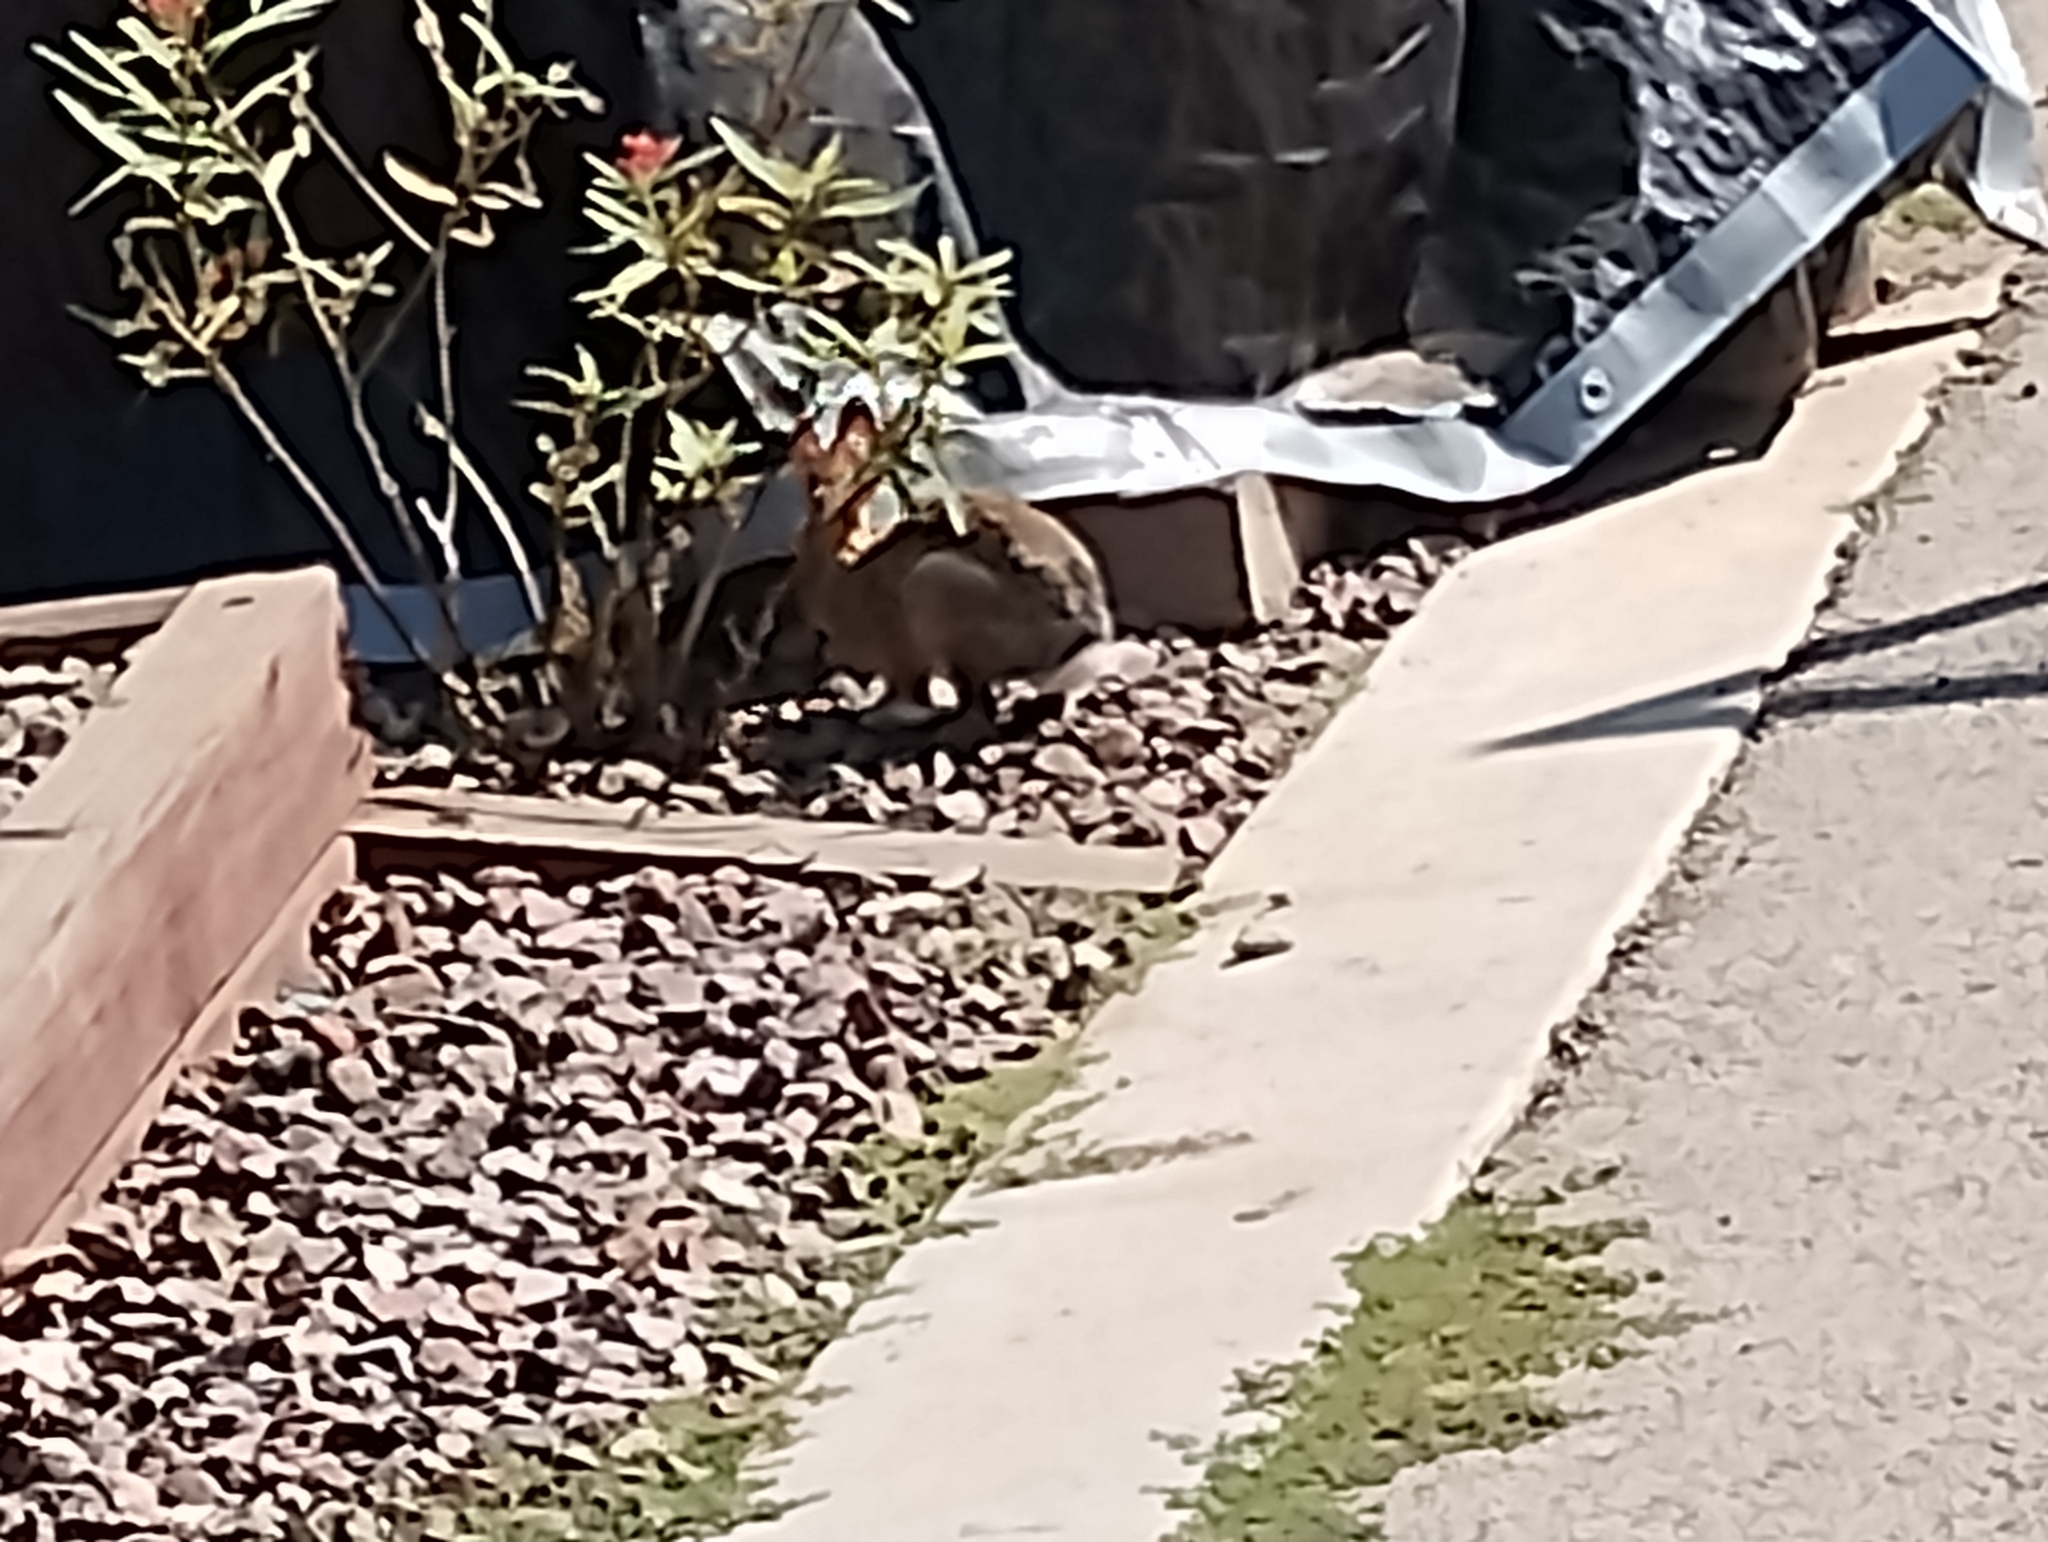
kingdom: Animalia
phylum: Chordata
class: Mammalia
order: Lagomorpha
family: Leporidae
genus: Sylvilagus
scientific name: Sylvilagus audubonii
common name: Desert cottontail
